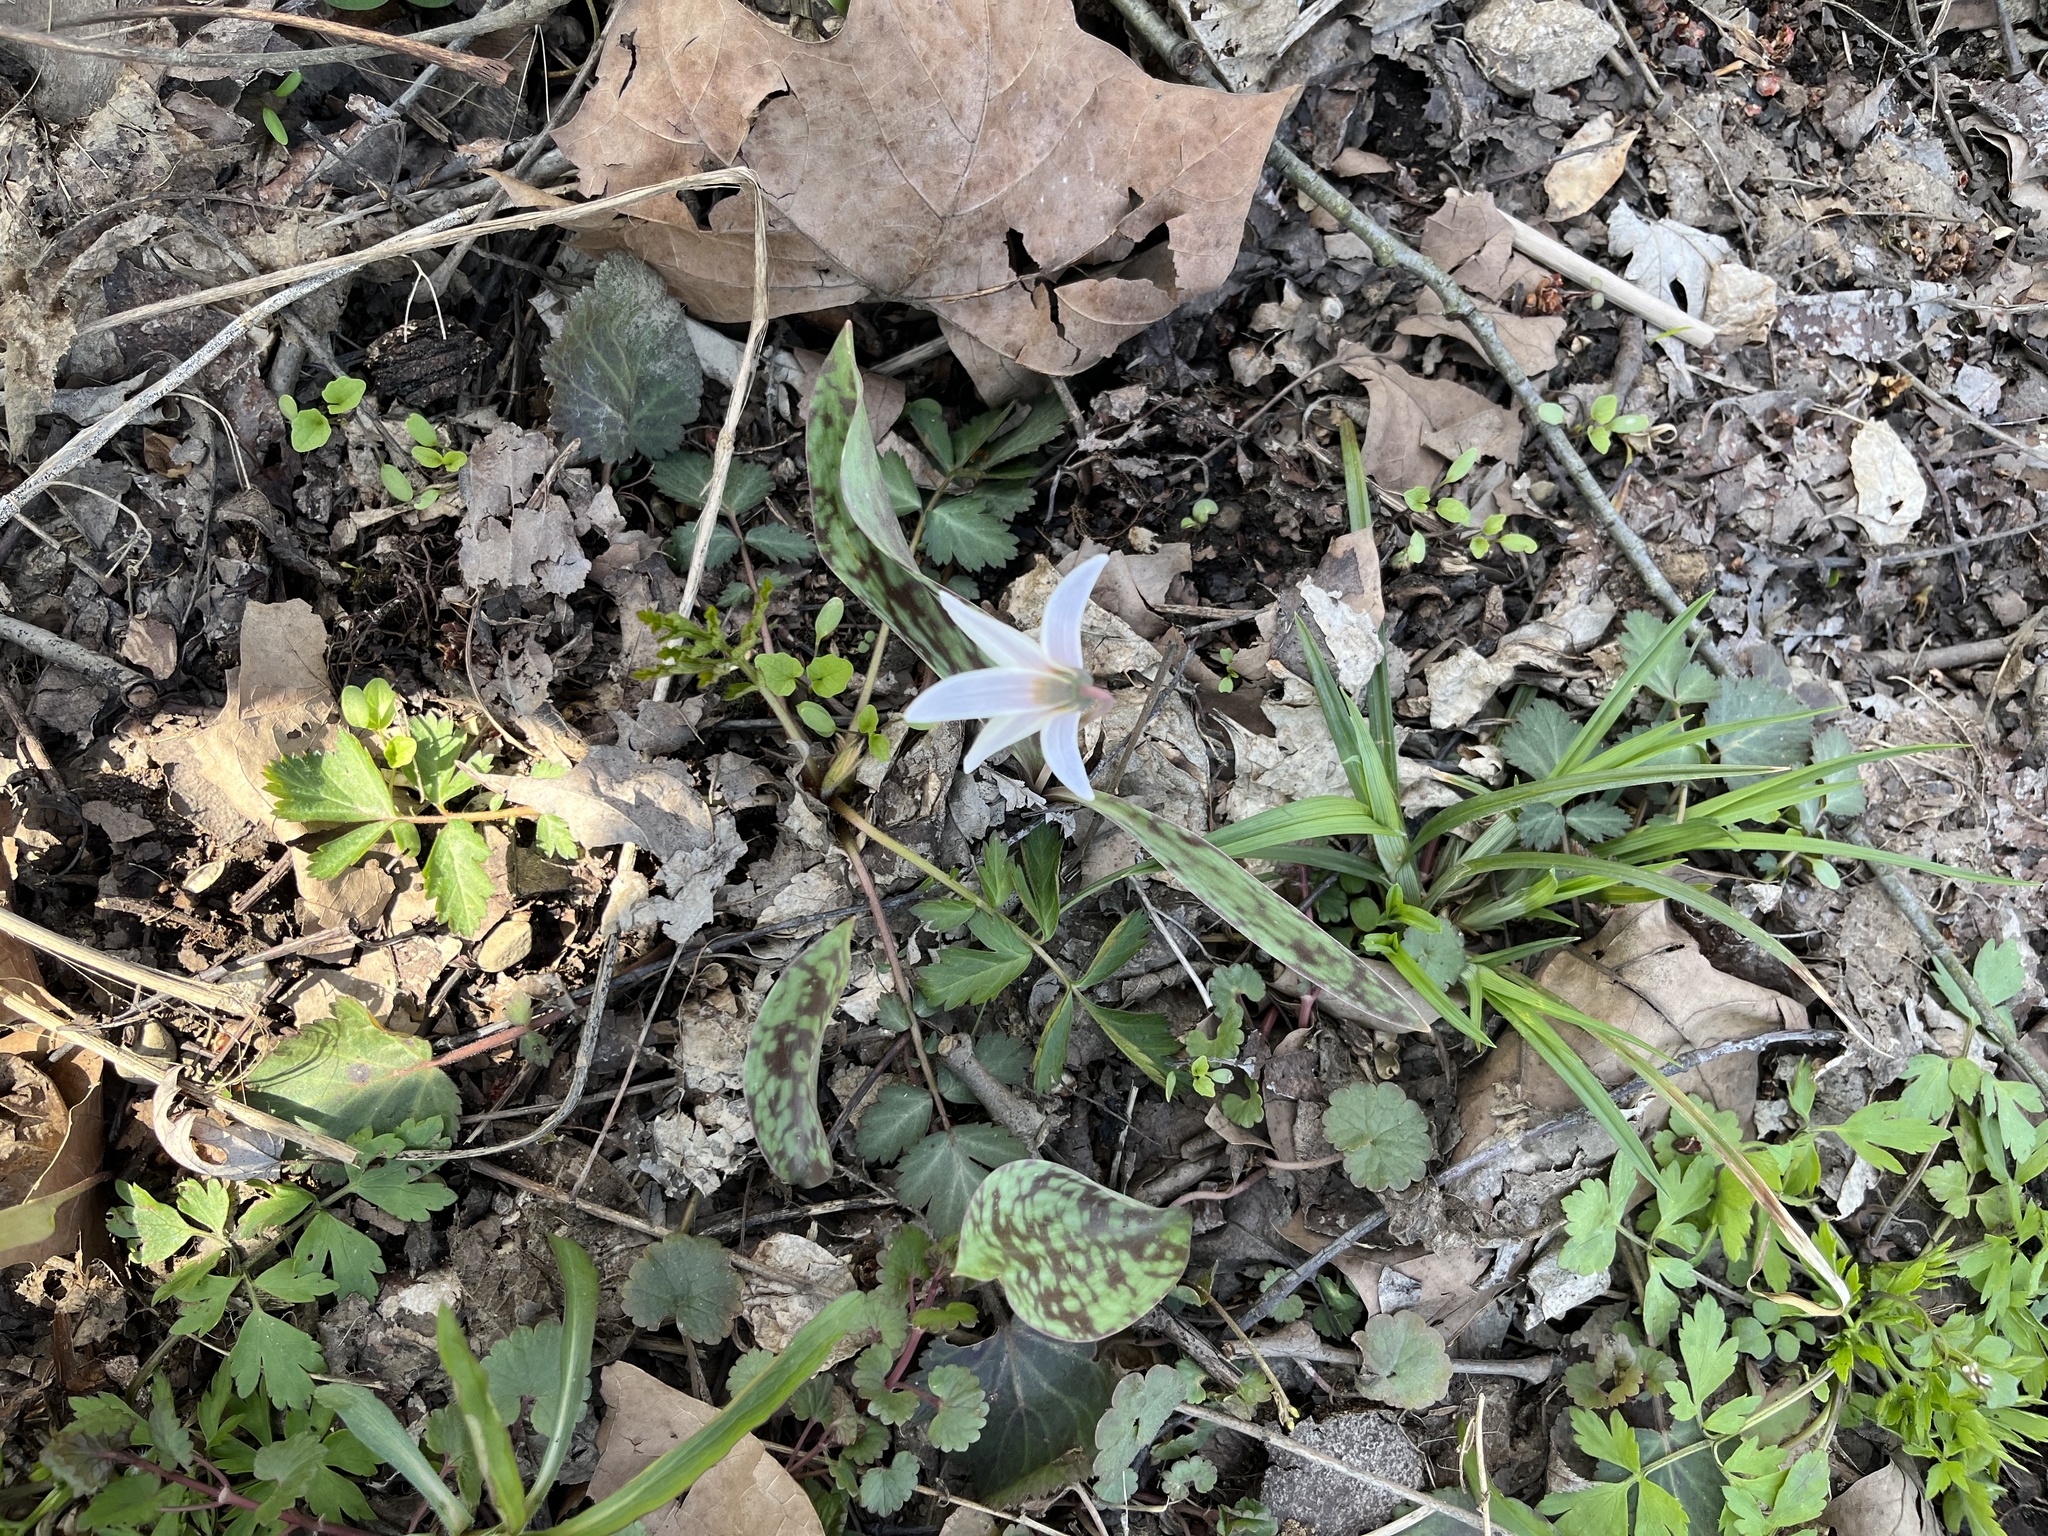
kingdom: Plantae
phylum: Tracheophyta
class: Liliopsida
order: Liliales
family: Liliaceae
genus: Erythronium
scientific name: Erythronium albidum
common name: White trout-lily
